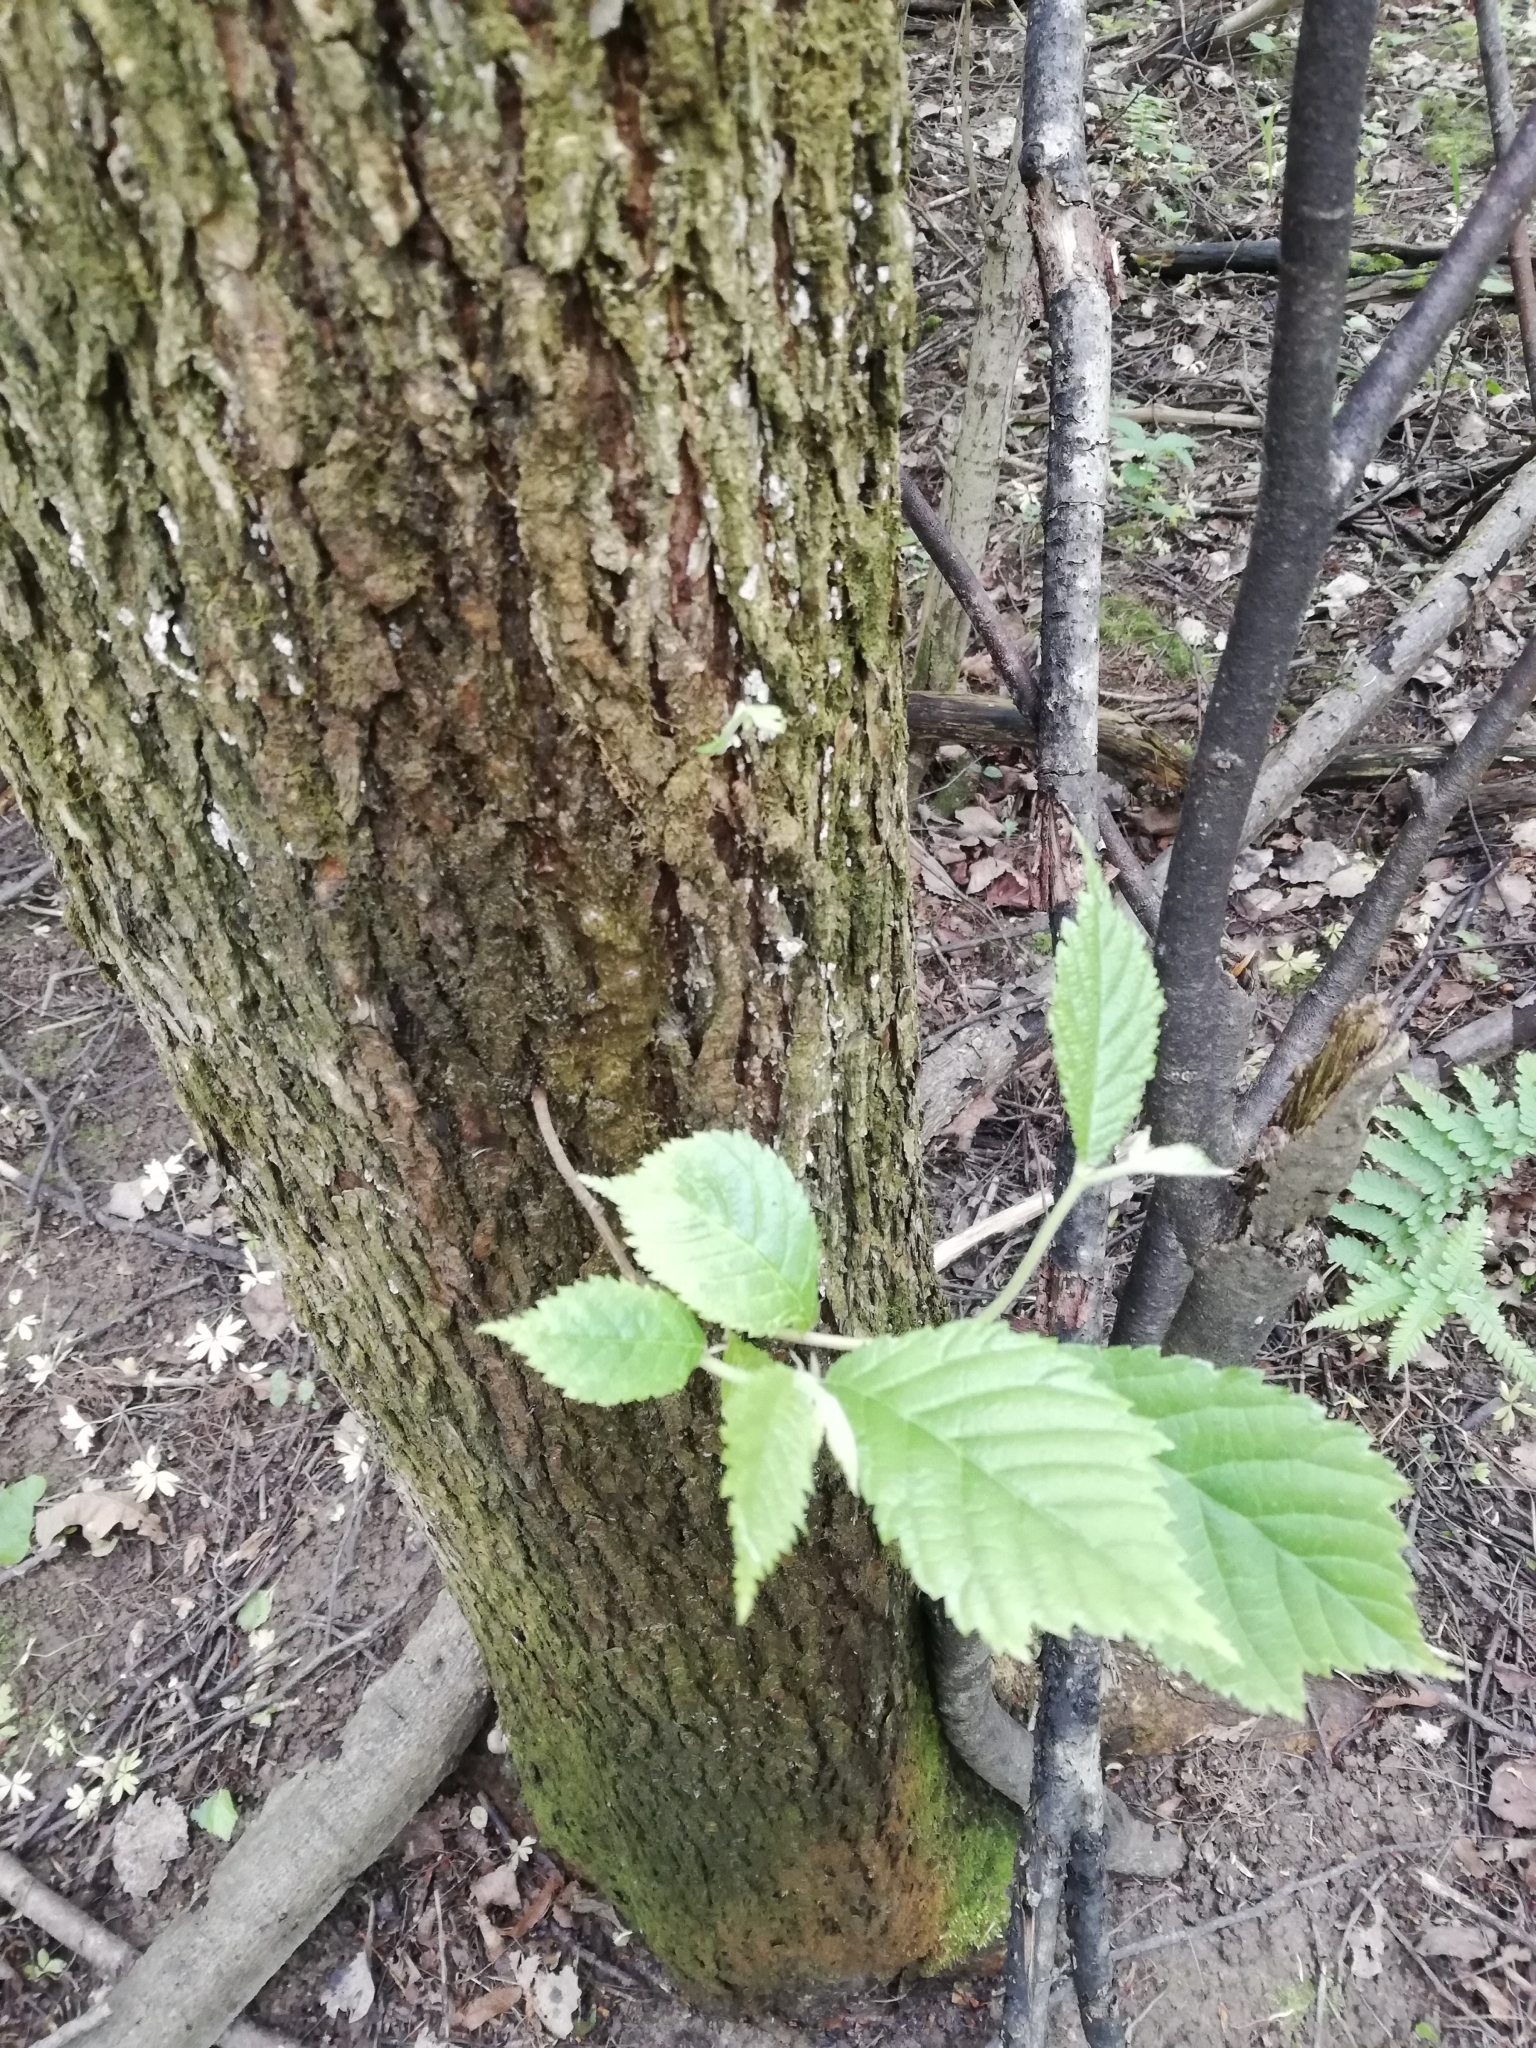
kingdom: Plantae
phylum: Tracheophyta
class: Magnoliopsida
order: Rosales
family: Ulmaceae
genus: Ulmus
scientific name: Ulmus glabra
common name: Wych elm
